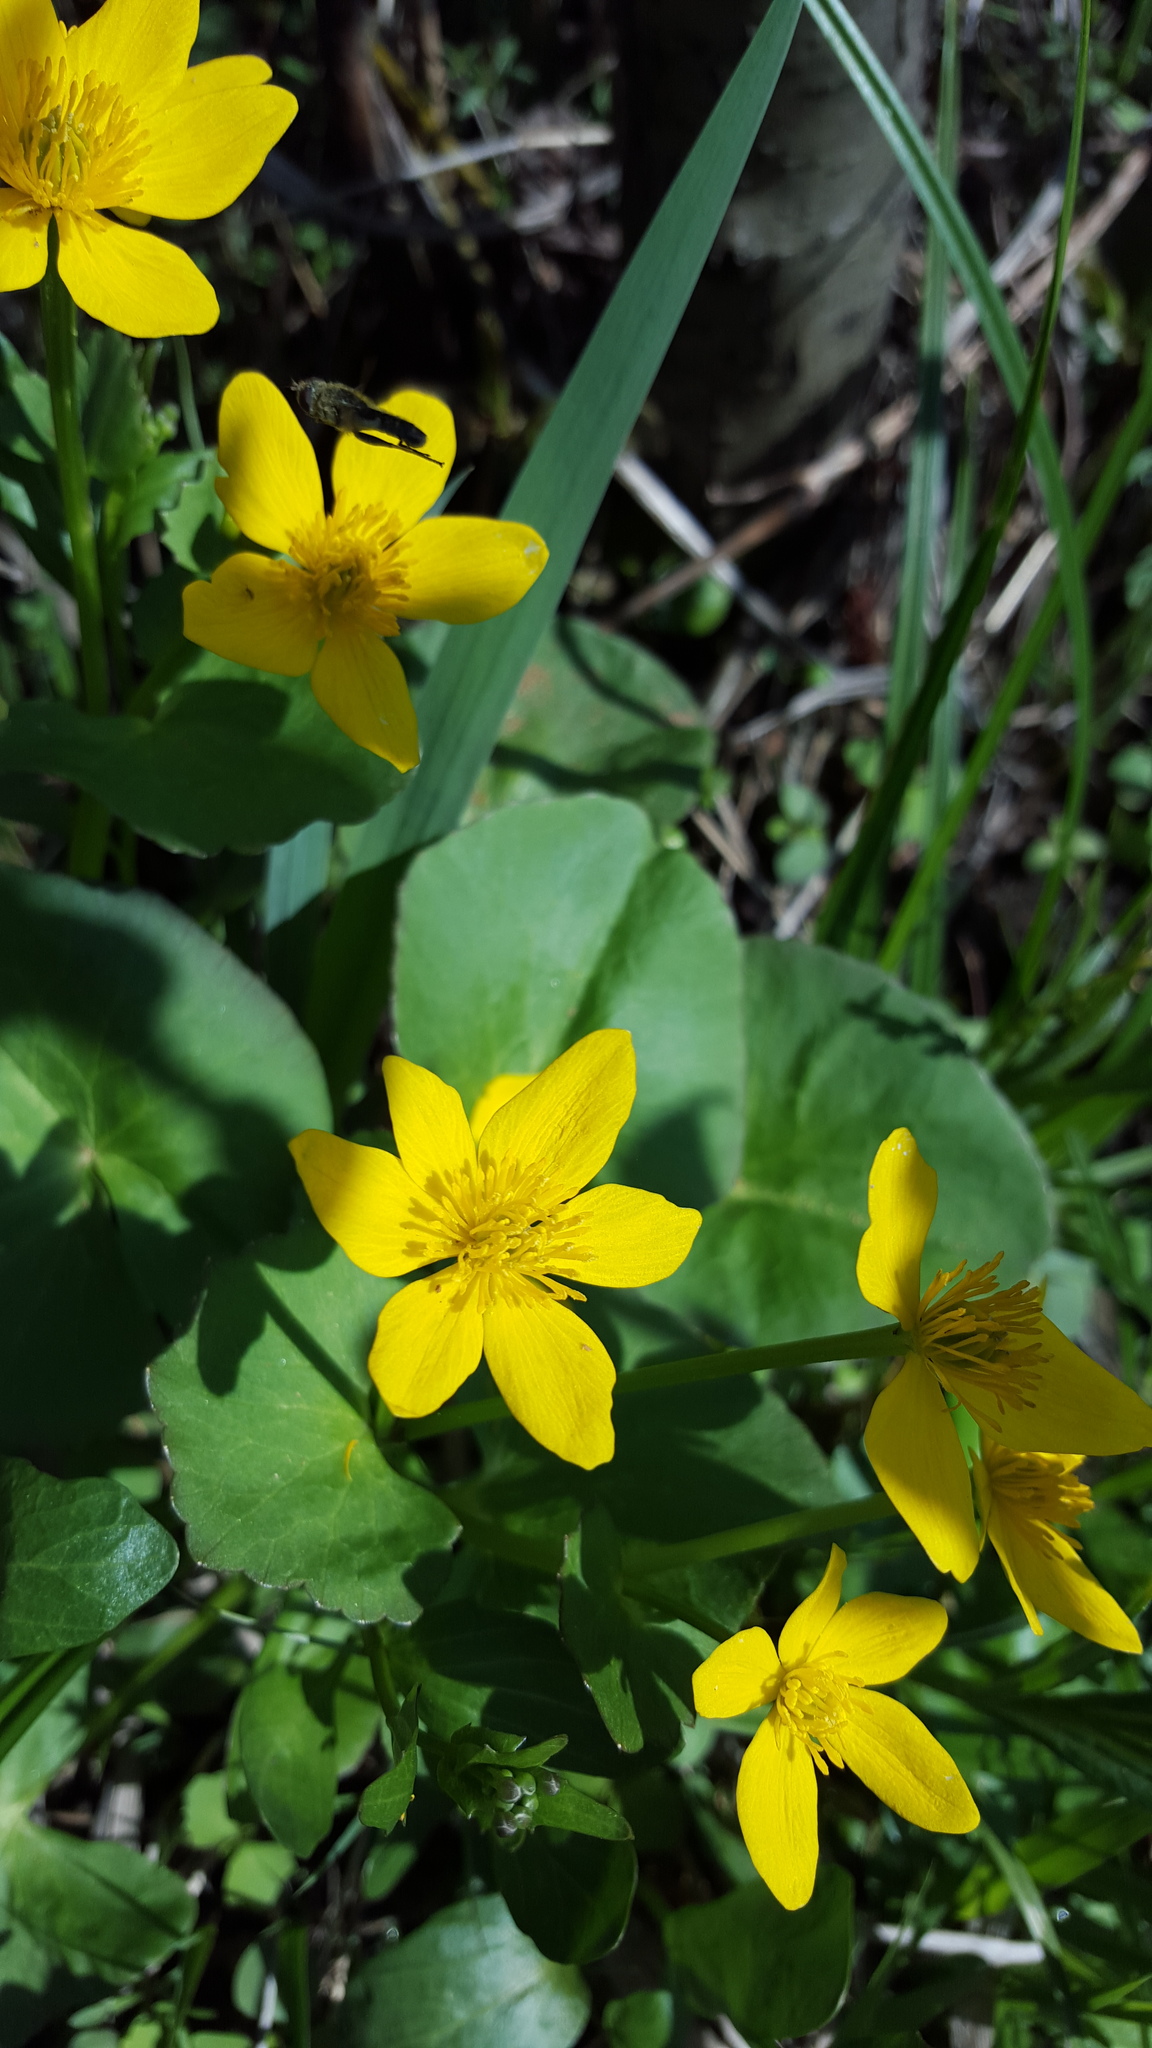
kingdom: Plantae
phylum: Tracheophyta
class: Magnoliopsida
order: Ranunculales
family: Ranunculaceae
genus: Caltha
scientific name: Caltha palustris
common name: Marsh marigold
